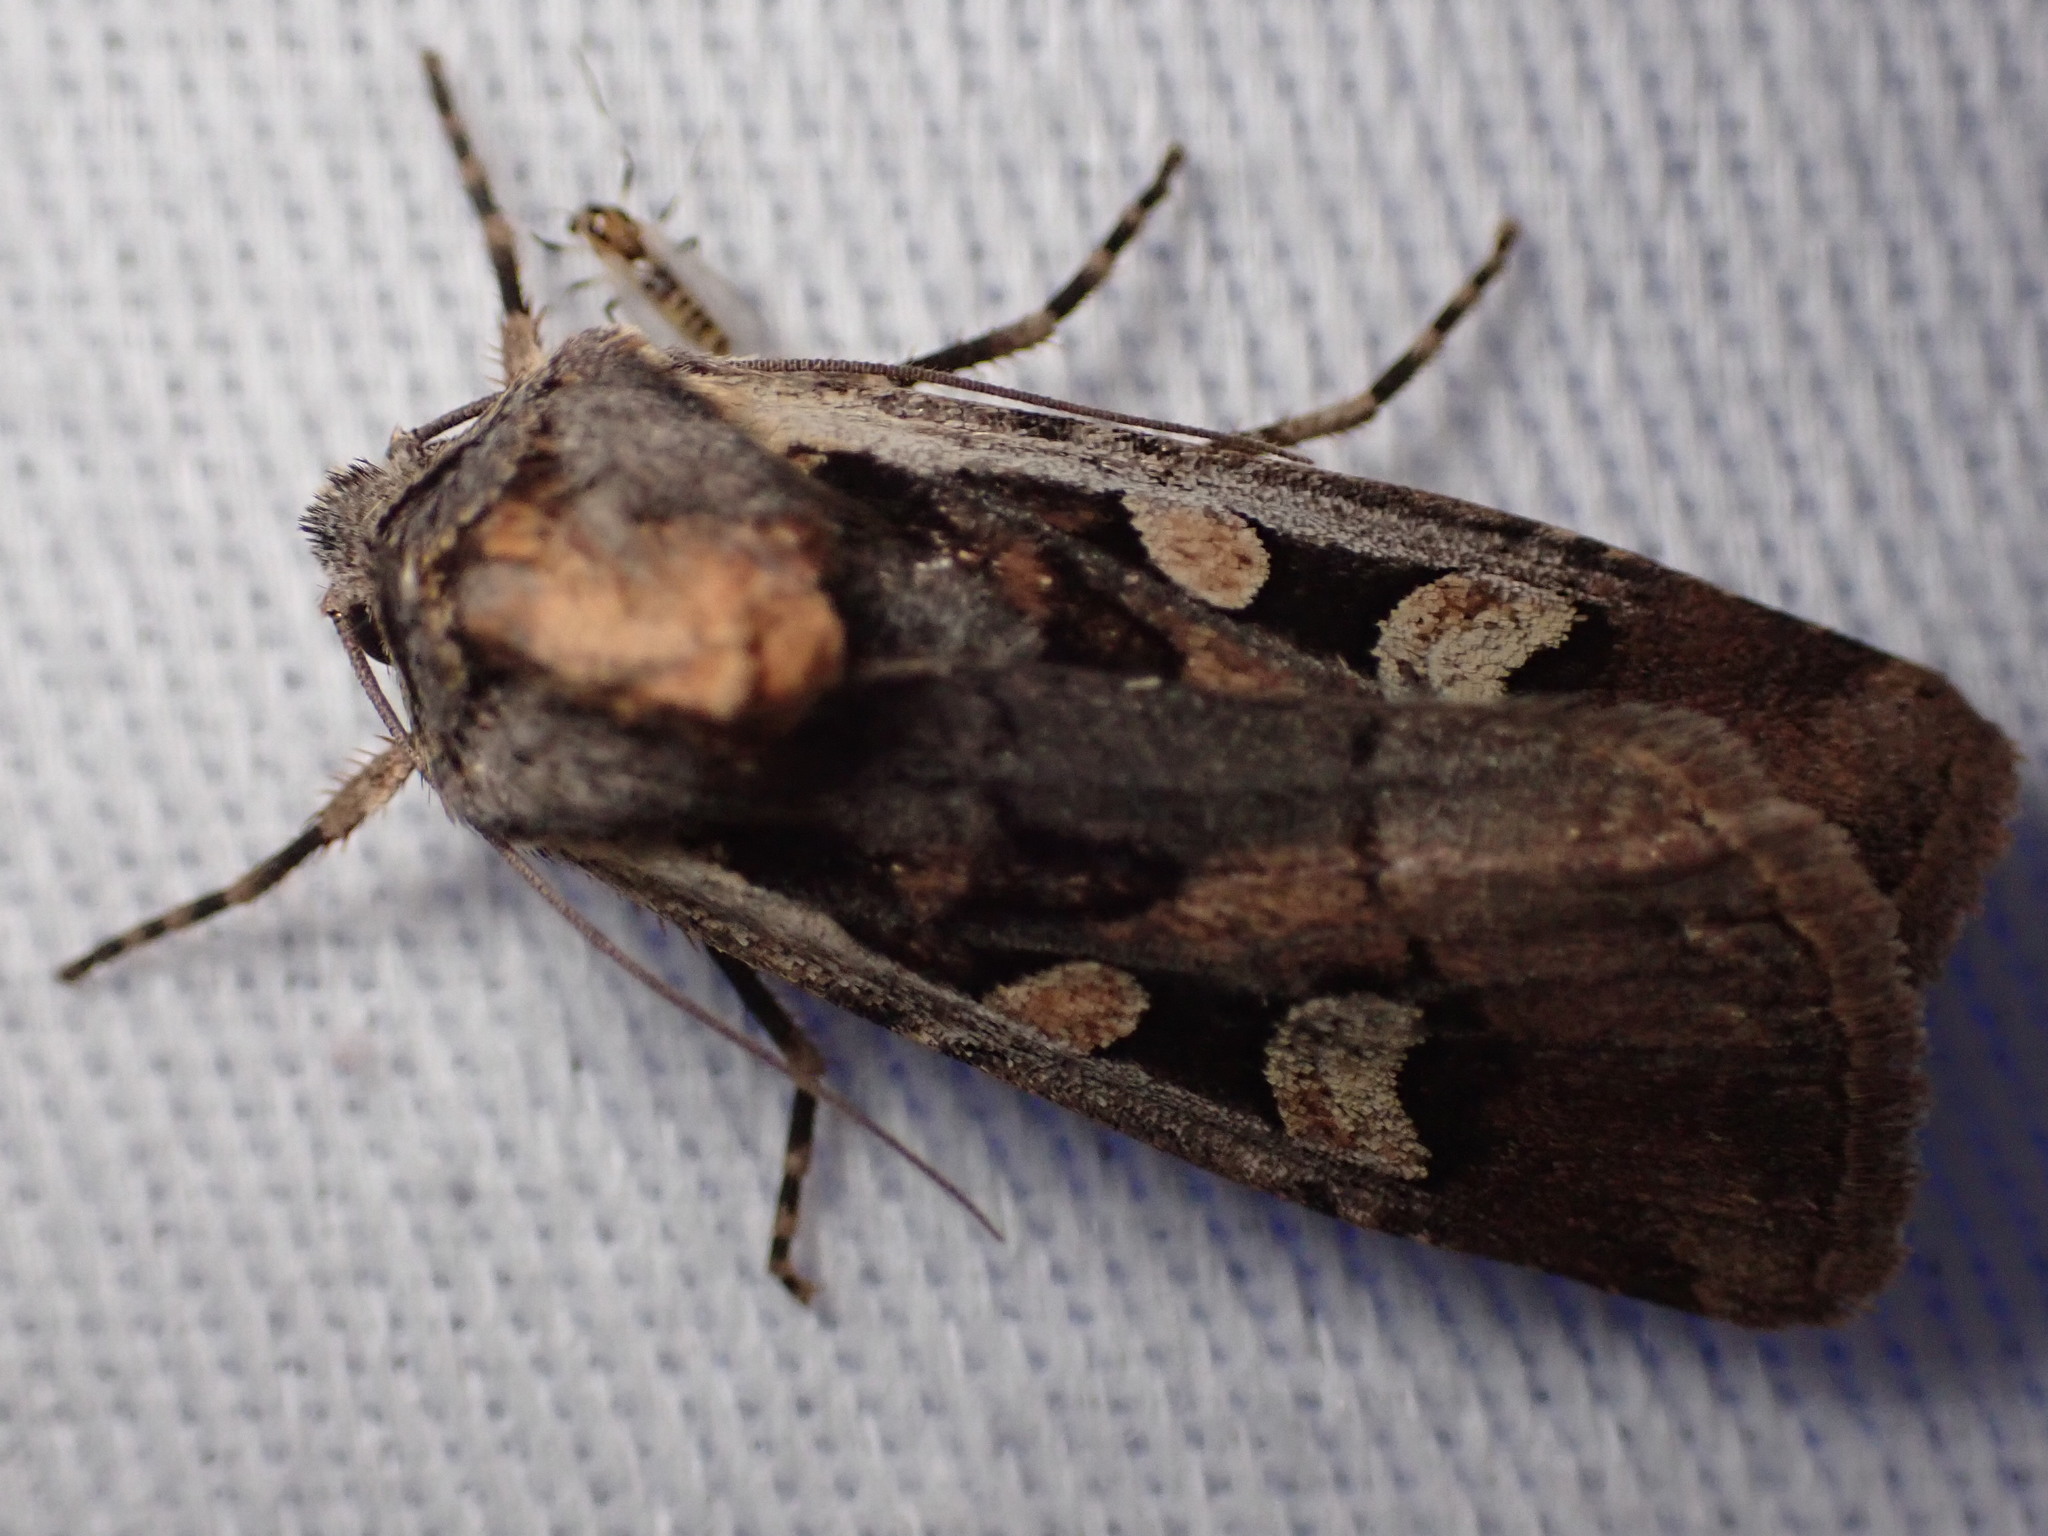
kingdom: Animalia
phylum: Arthropoda
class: Insecta
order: Lepidoptera
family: Noctuidae
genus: Euxoa
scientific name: Euxoa obeliscoides
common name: Obelisk dart moth
